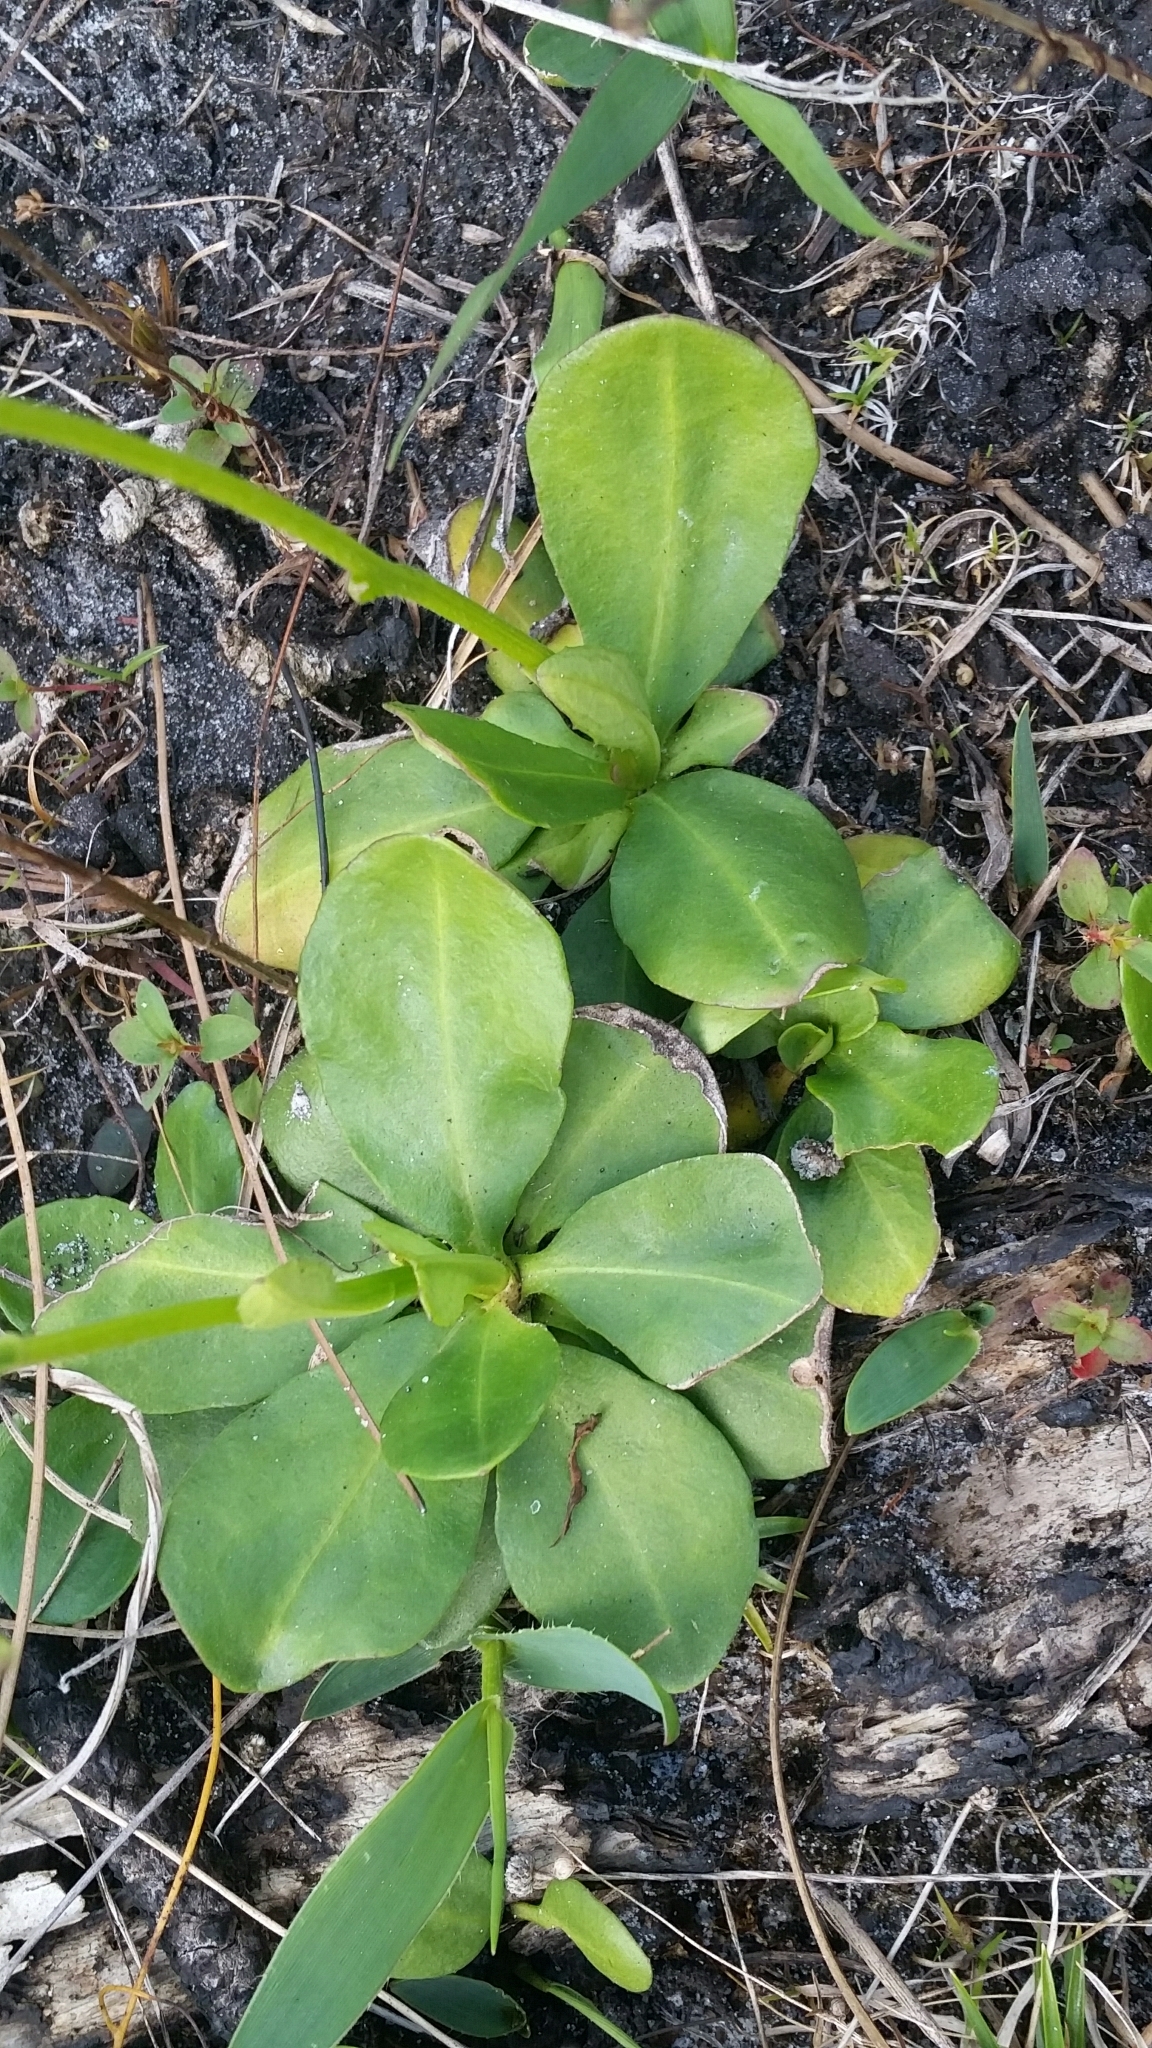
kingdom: Plantae
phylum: Tracheophyta
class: Magnoliopsida
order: Asterales
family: Asteraceae
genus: Erigeron
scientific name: Erigeron vernus
